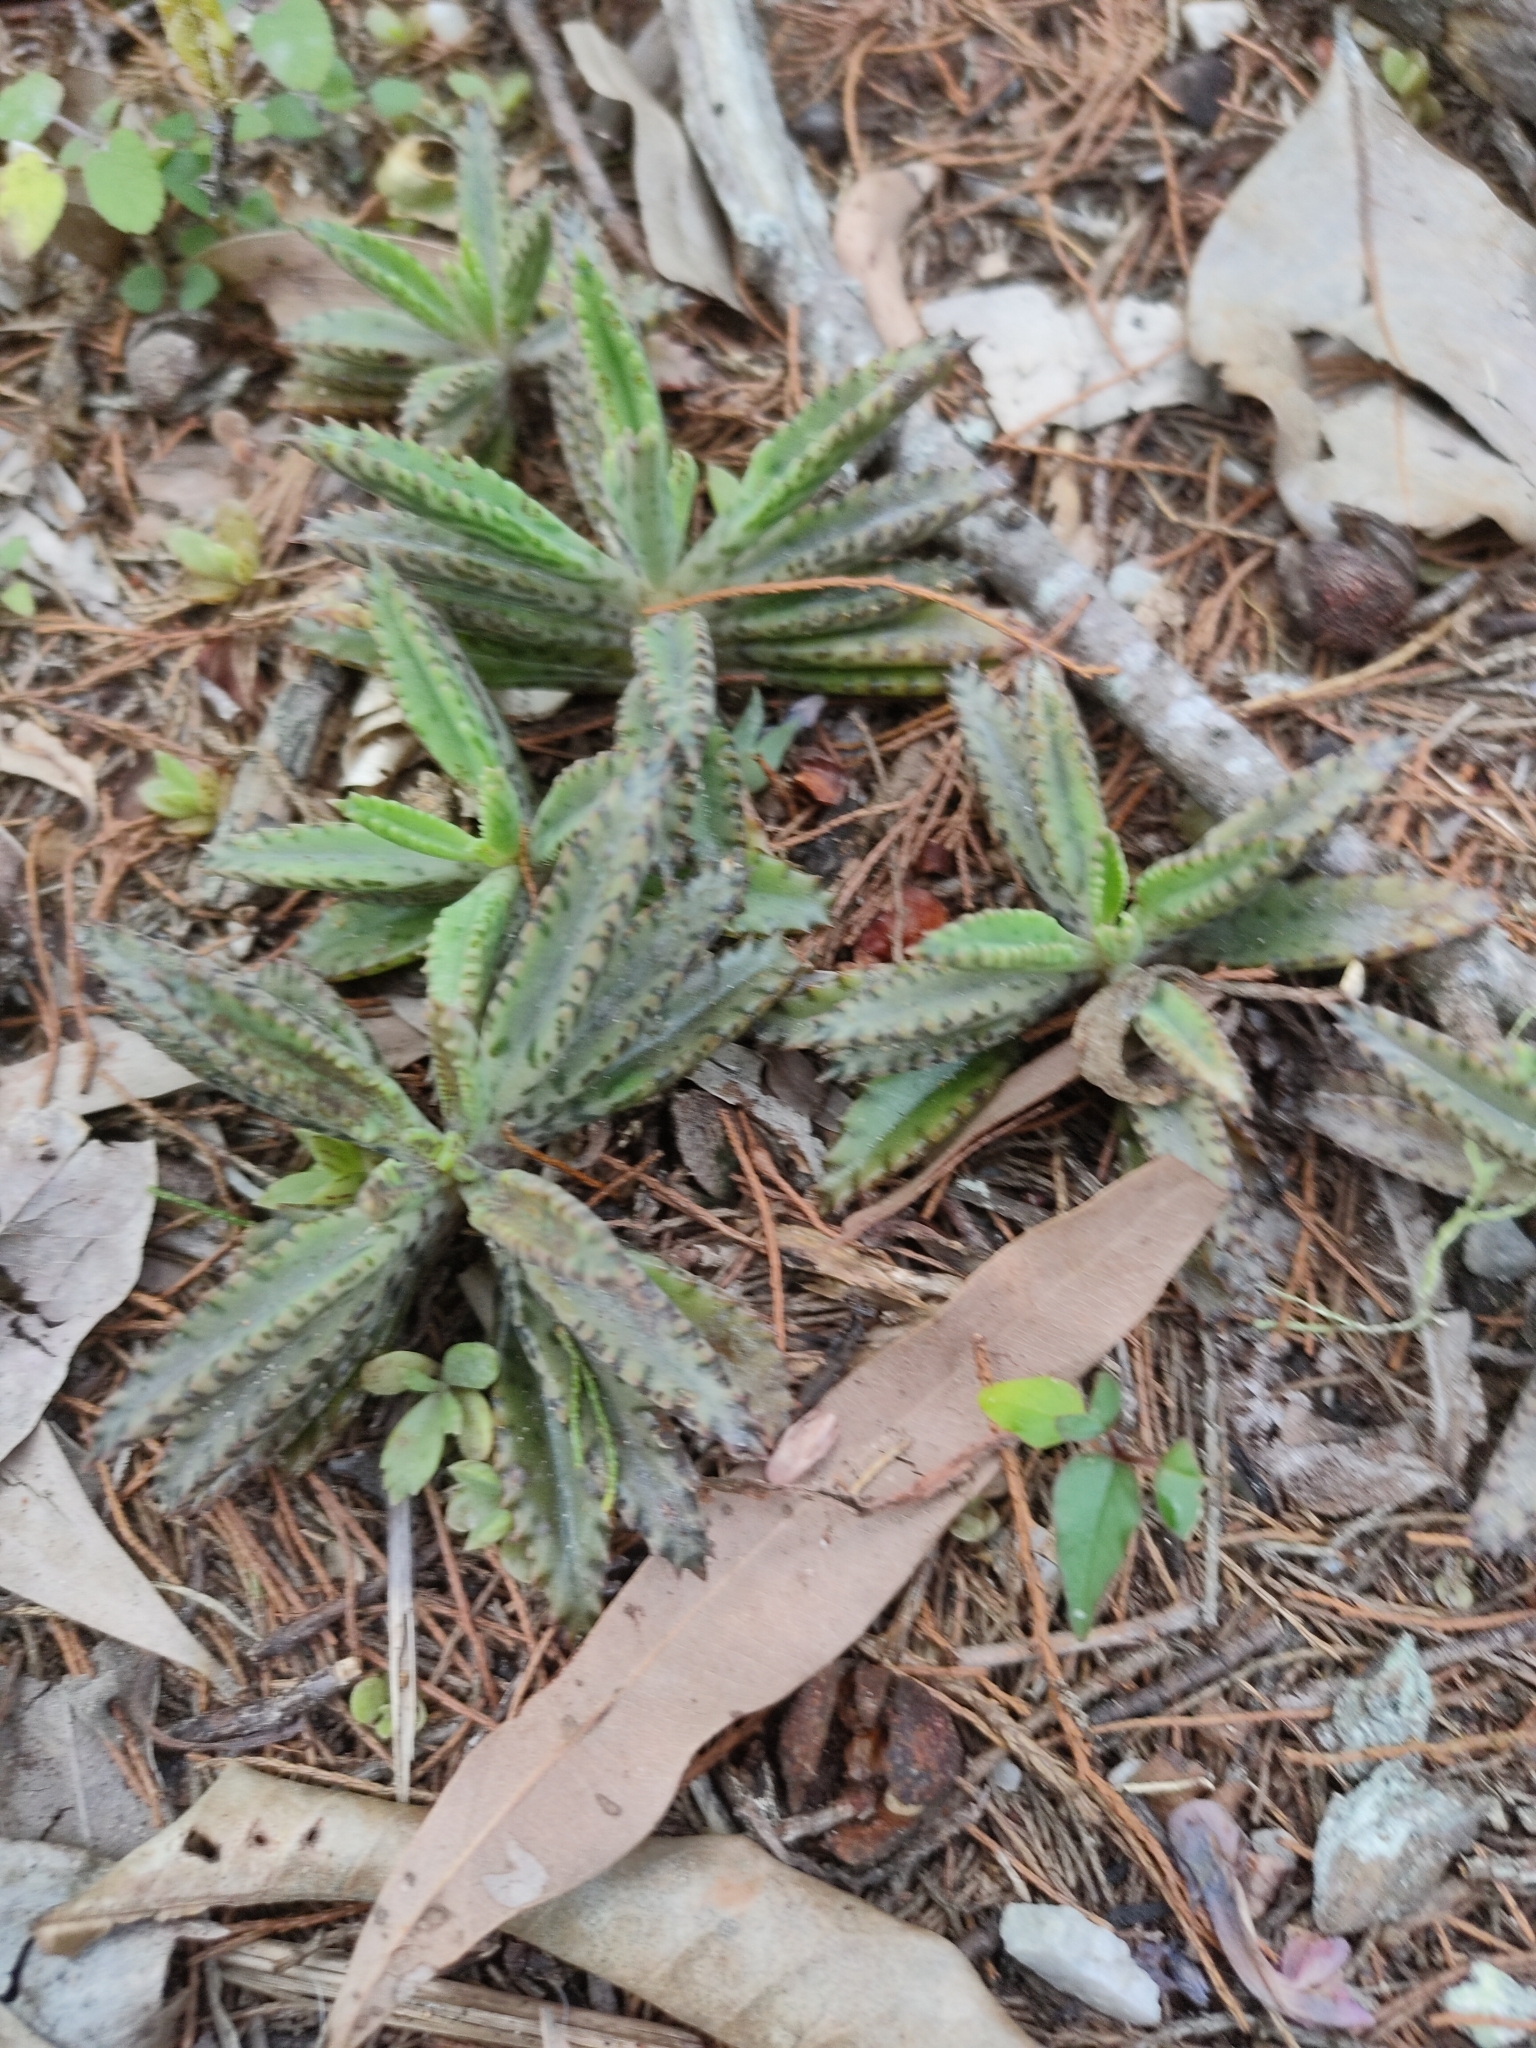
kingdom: Plantae
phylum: Tracheophyta
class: Magnoliopsida
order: Saxifragales
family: Crassulaceae
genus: Kalanchoe
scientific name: Kalanchoe houghtonii
